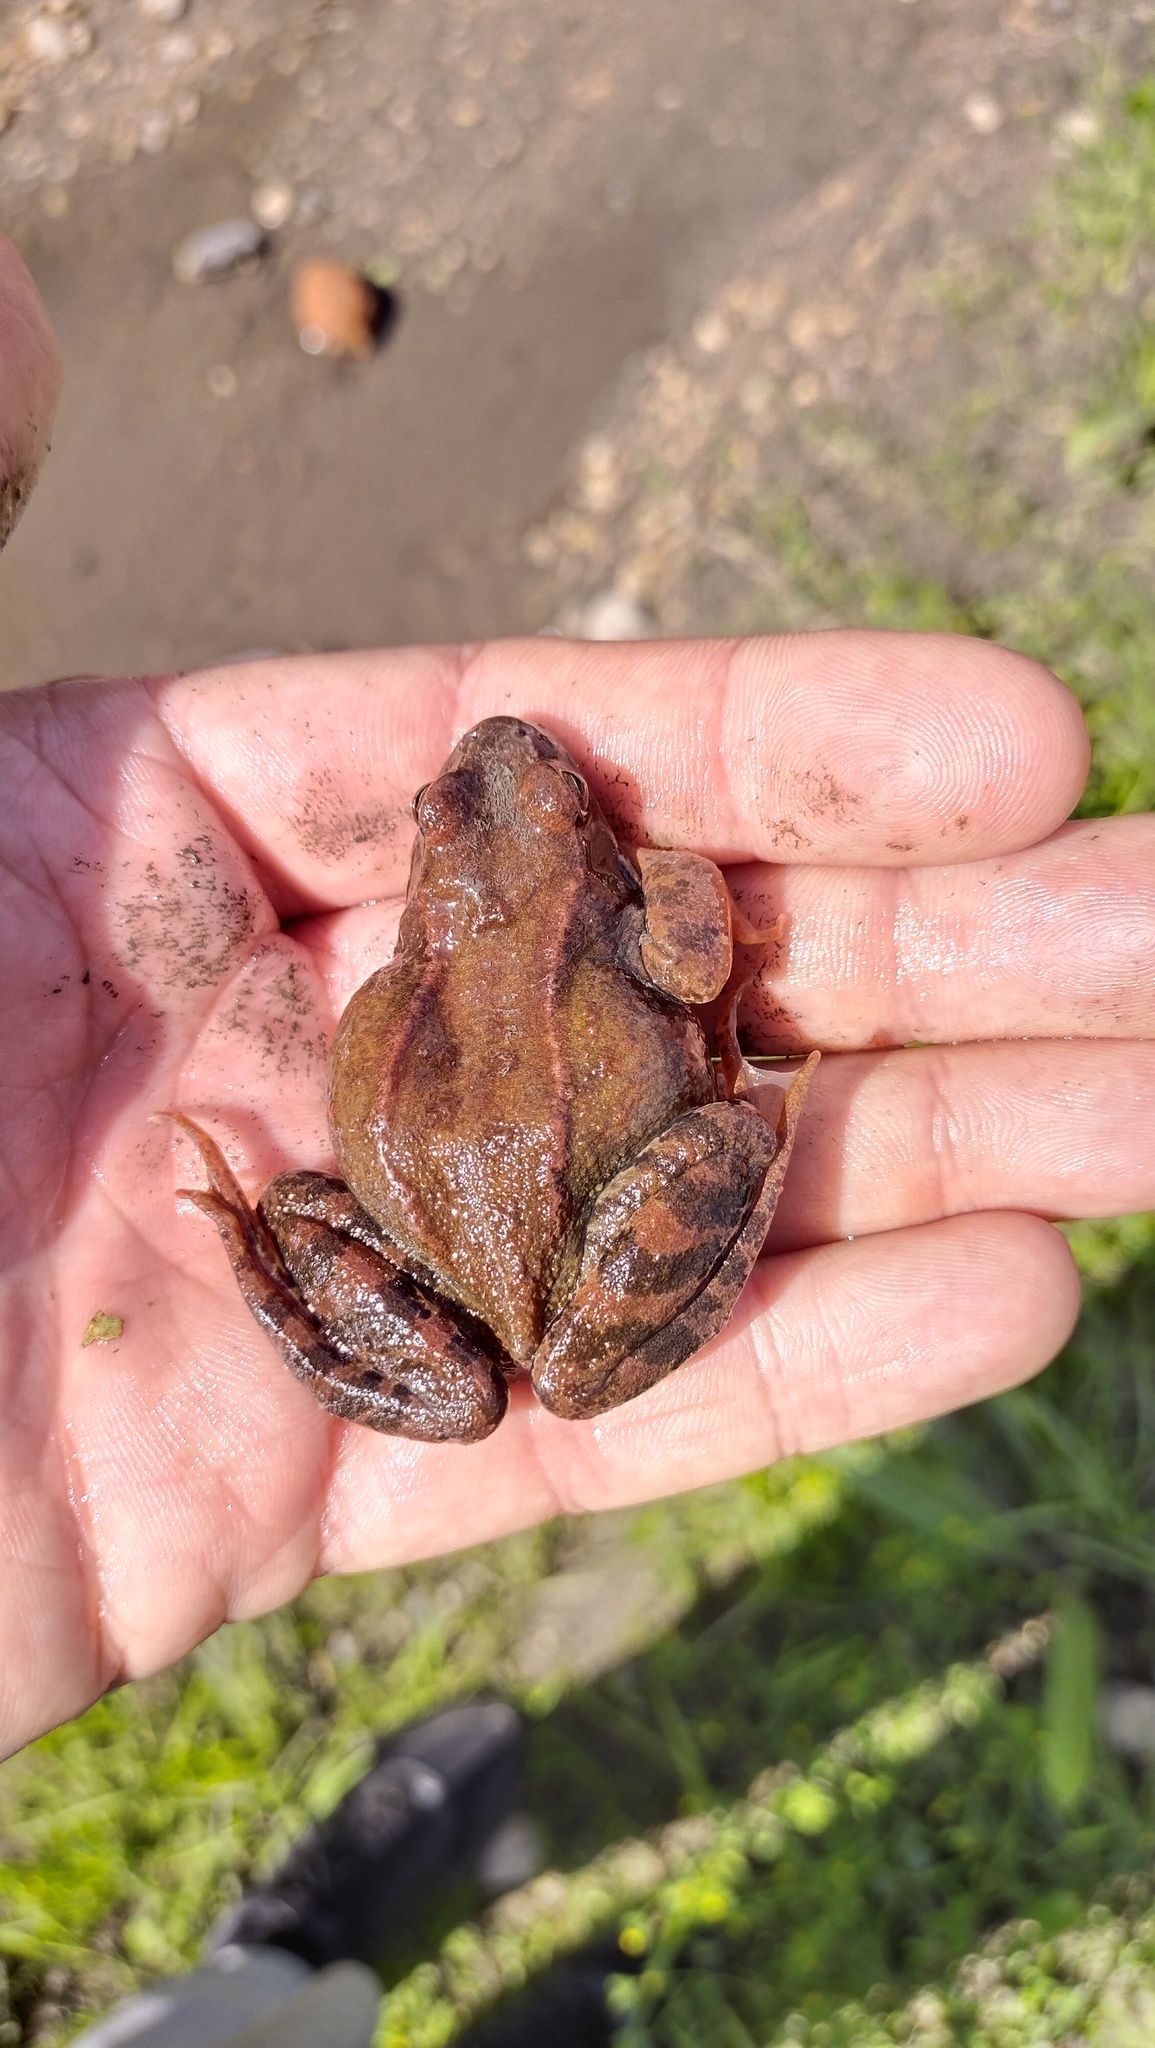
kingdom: Animalia
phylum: Chordata
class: Amphibia
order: Anura
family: Ranidae
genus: Rana
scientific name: Rana temporaria
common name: Common frog
